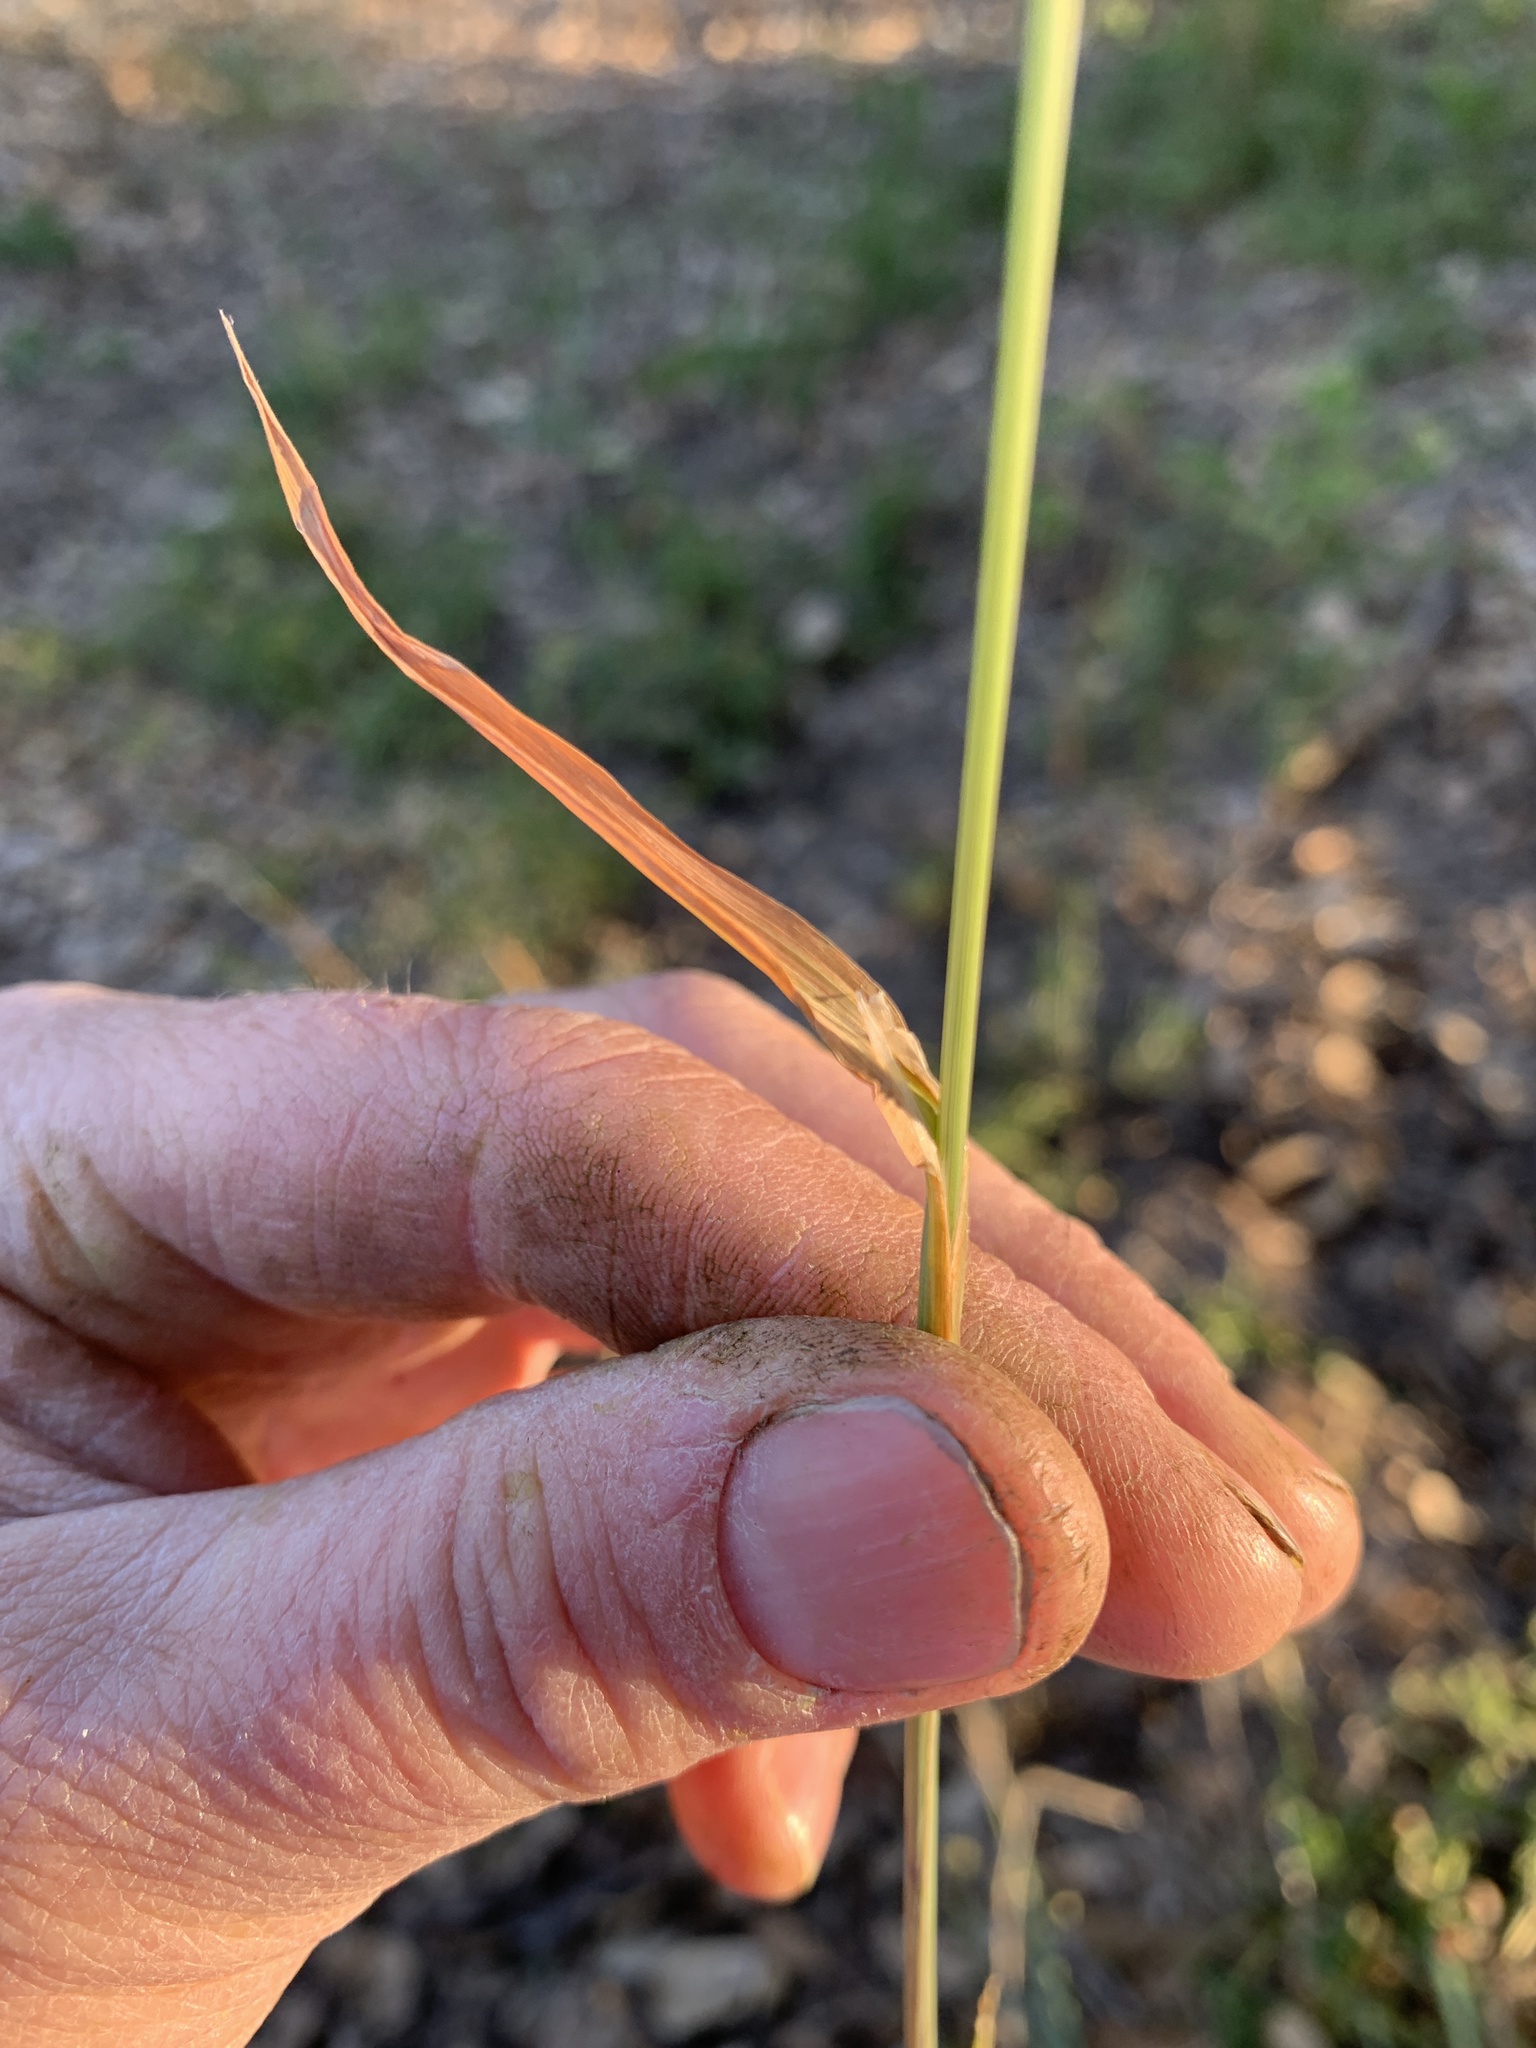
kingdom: Plantae
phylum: Tracheophyta
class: Liliopsida
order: Poales
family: Poaceae
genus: Briza
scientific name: Briza minor
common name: Lesser quaking-grass
